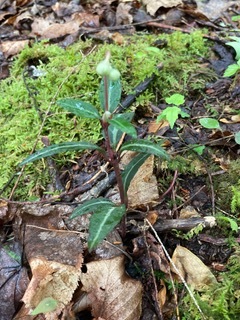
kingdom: Plantae
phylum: Tracheophyta
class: Magnoliopsida
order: Ericales
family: Ericaceae
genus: Chimaphila
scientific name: Chimaphila maculata
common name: Spotted pipsissewa
